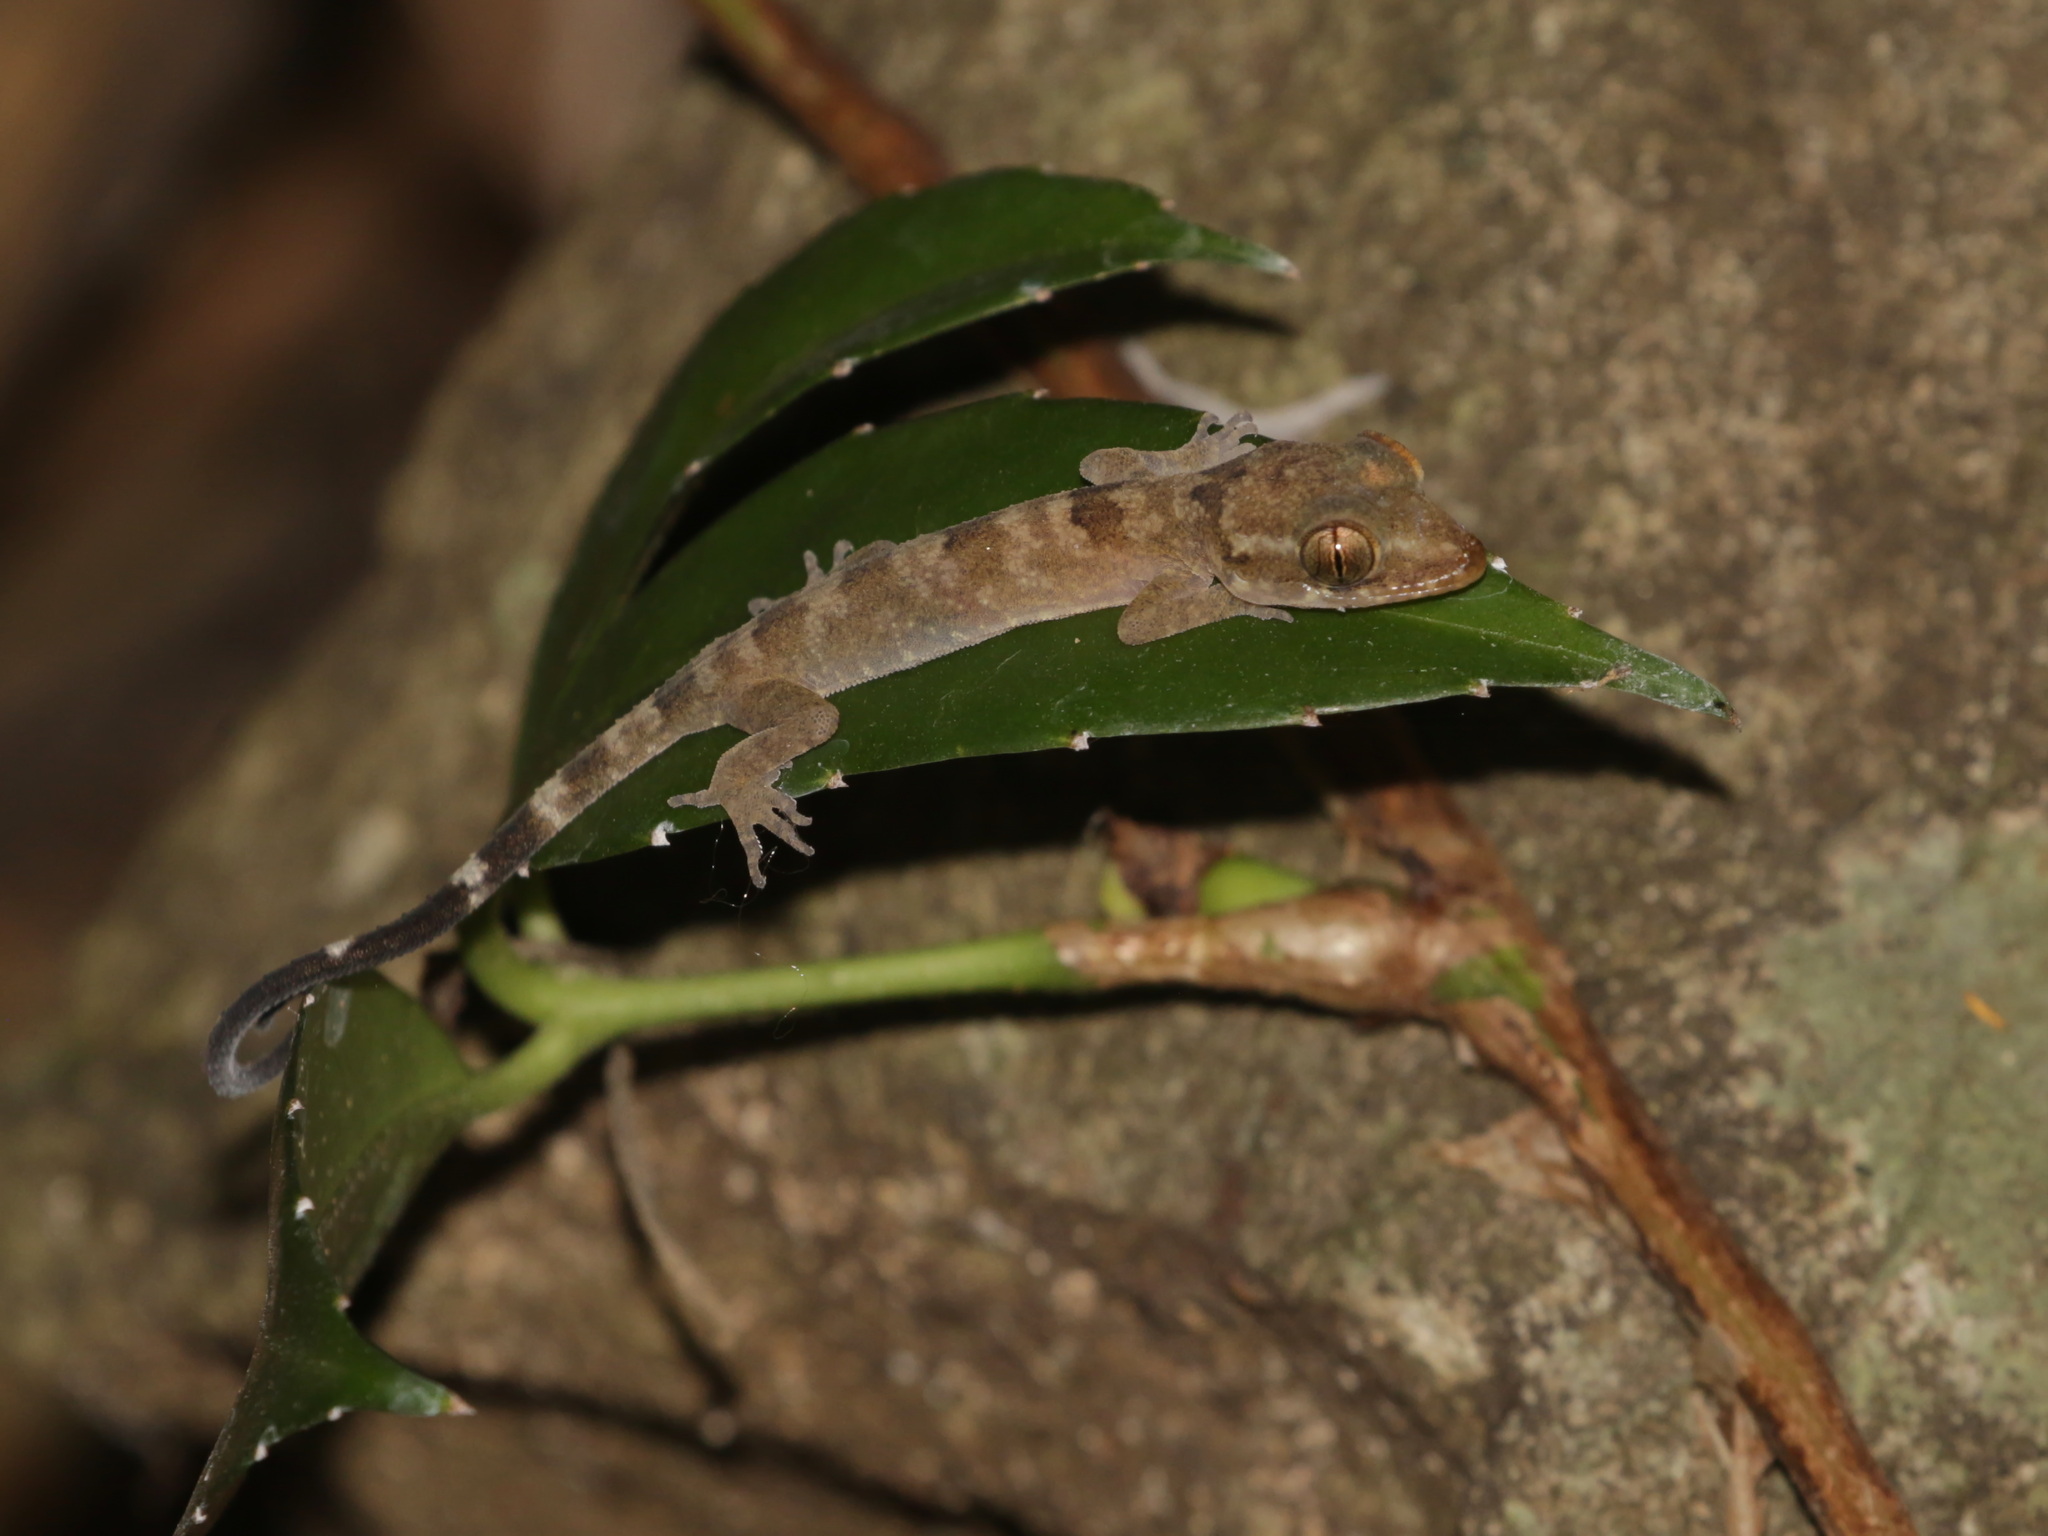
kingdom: Animalia
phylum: Chordata
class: Squamata
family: Gekkonidae
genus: Cyrtodactylus
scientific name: Cyrtodactylus uthaiensis
